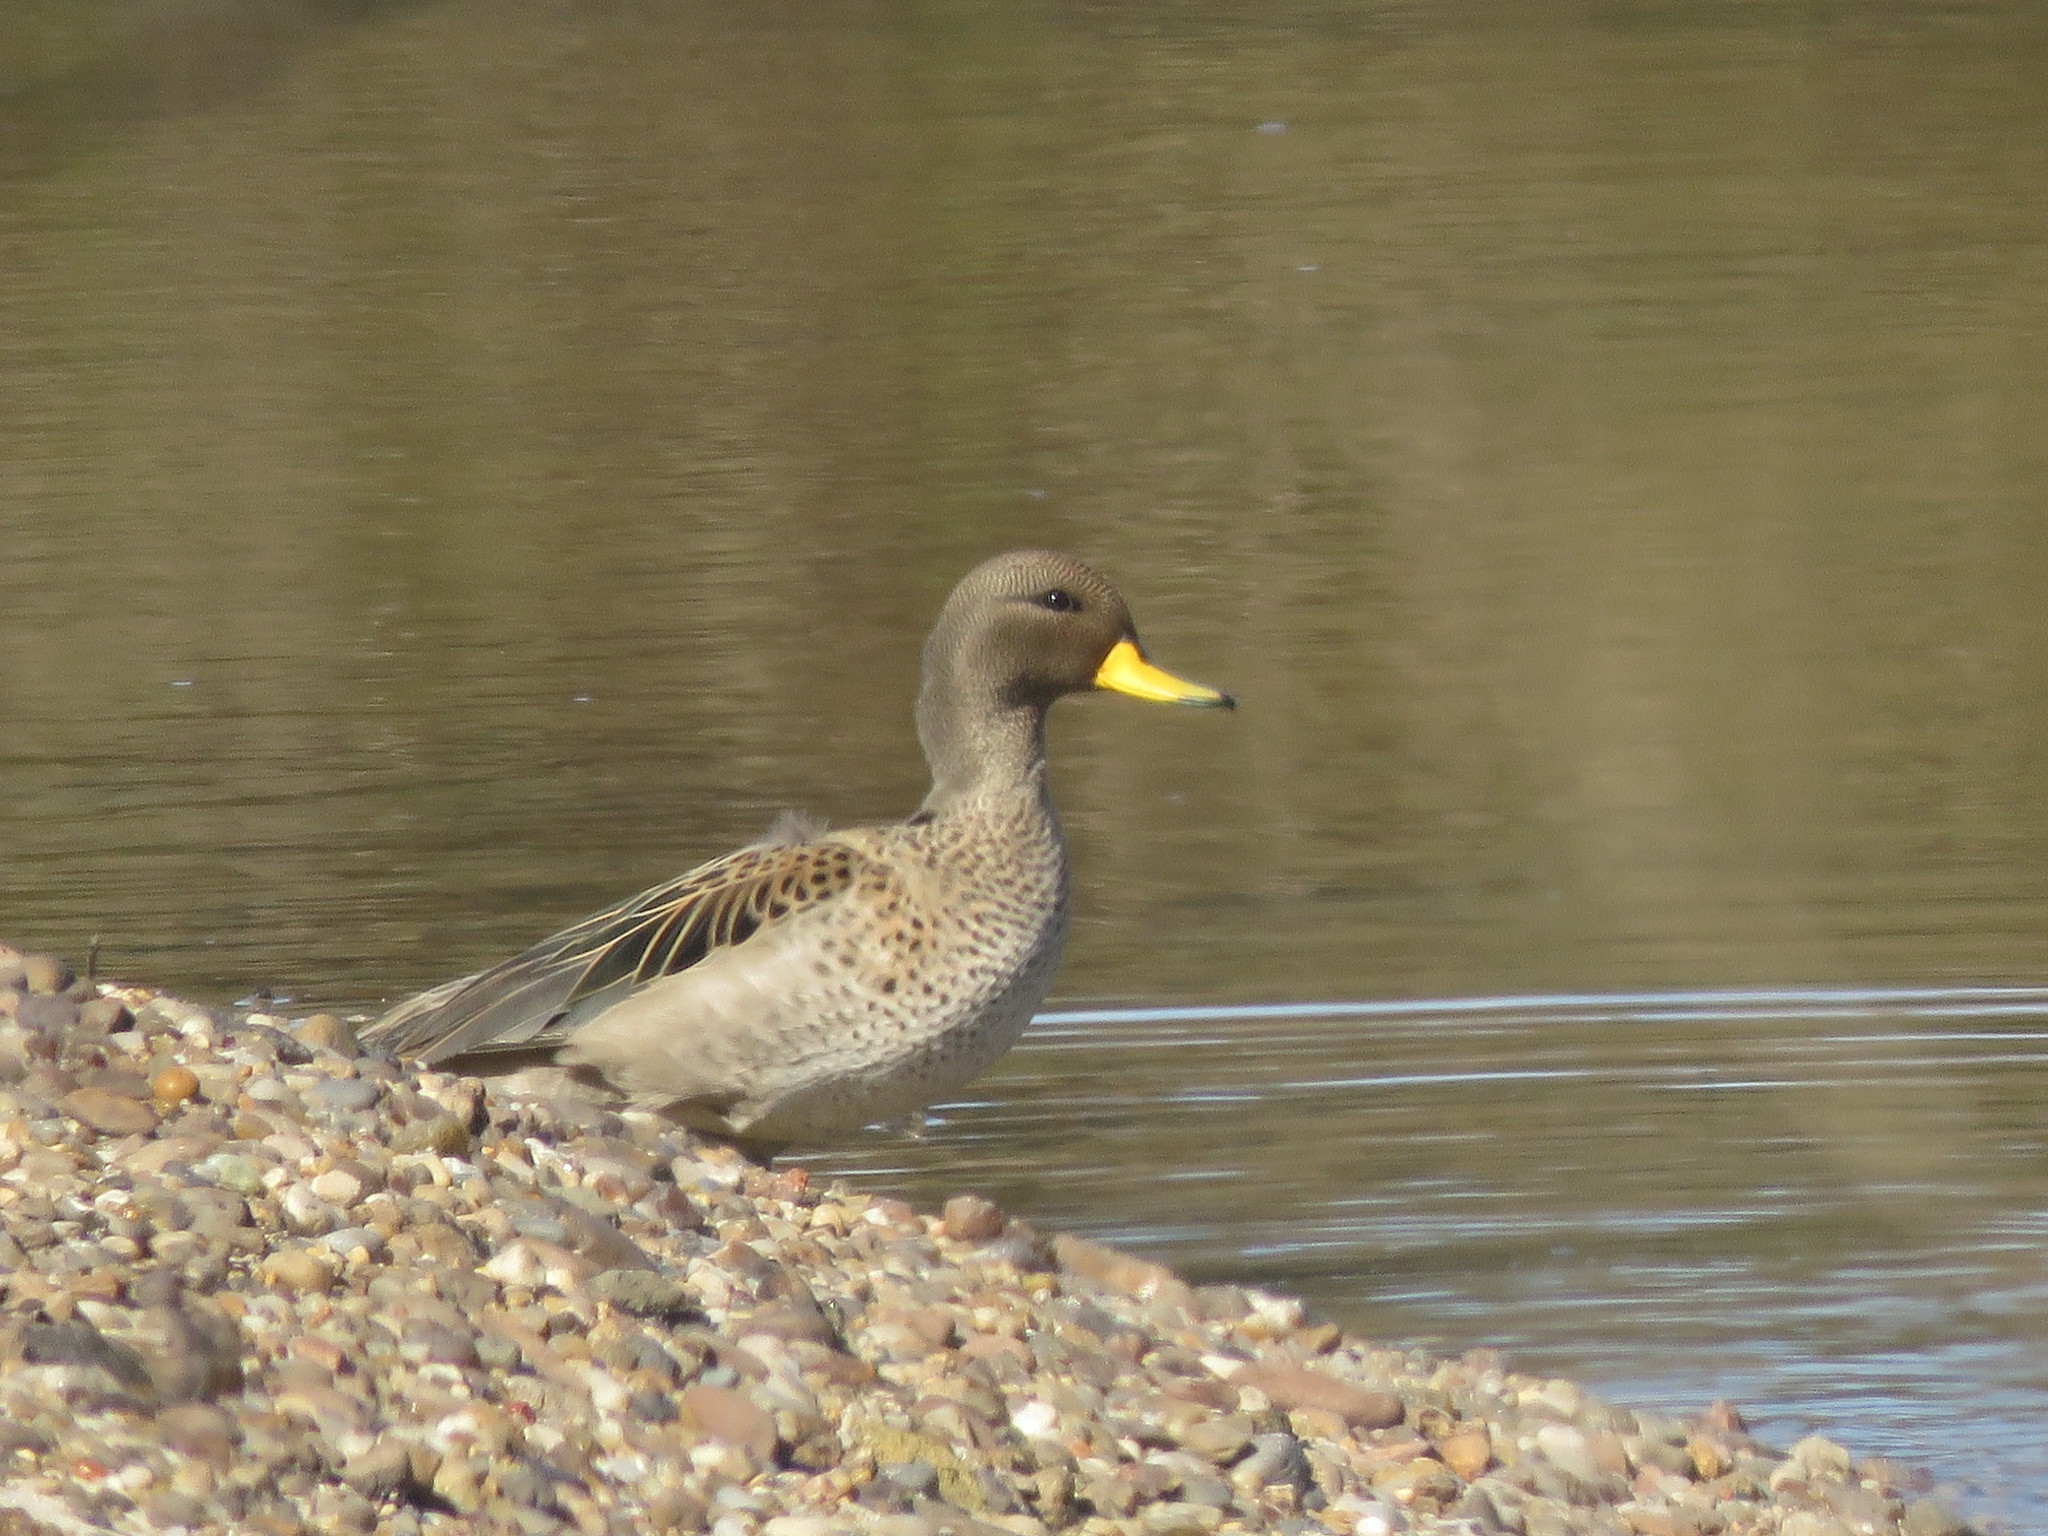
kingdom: Animalia
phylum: Chordata
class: Aves
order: Anseriformes
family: Anatidae
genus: Anas
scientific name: Anas flavirostris
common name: Yellow-billed teal
